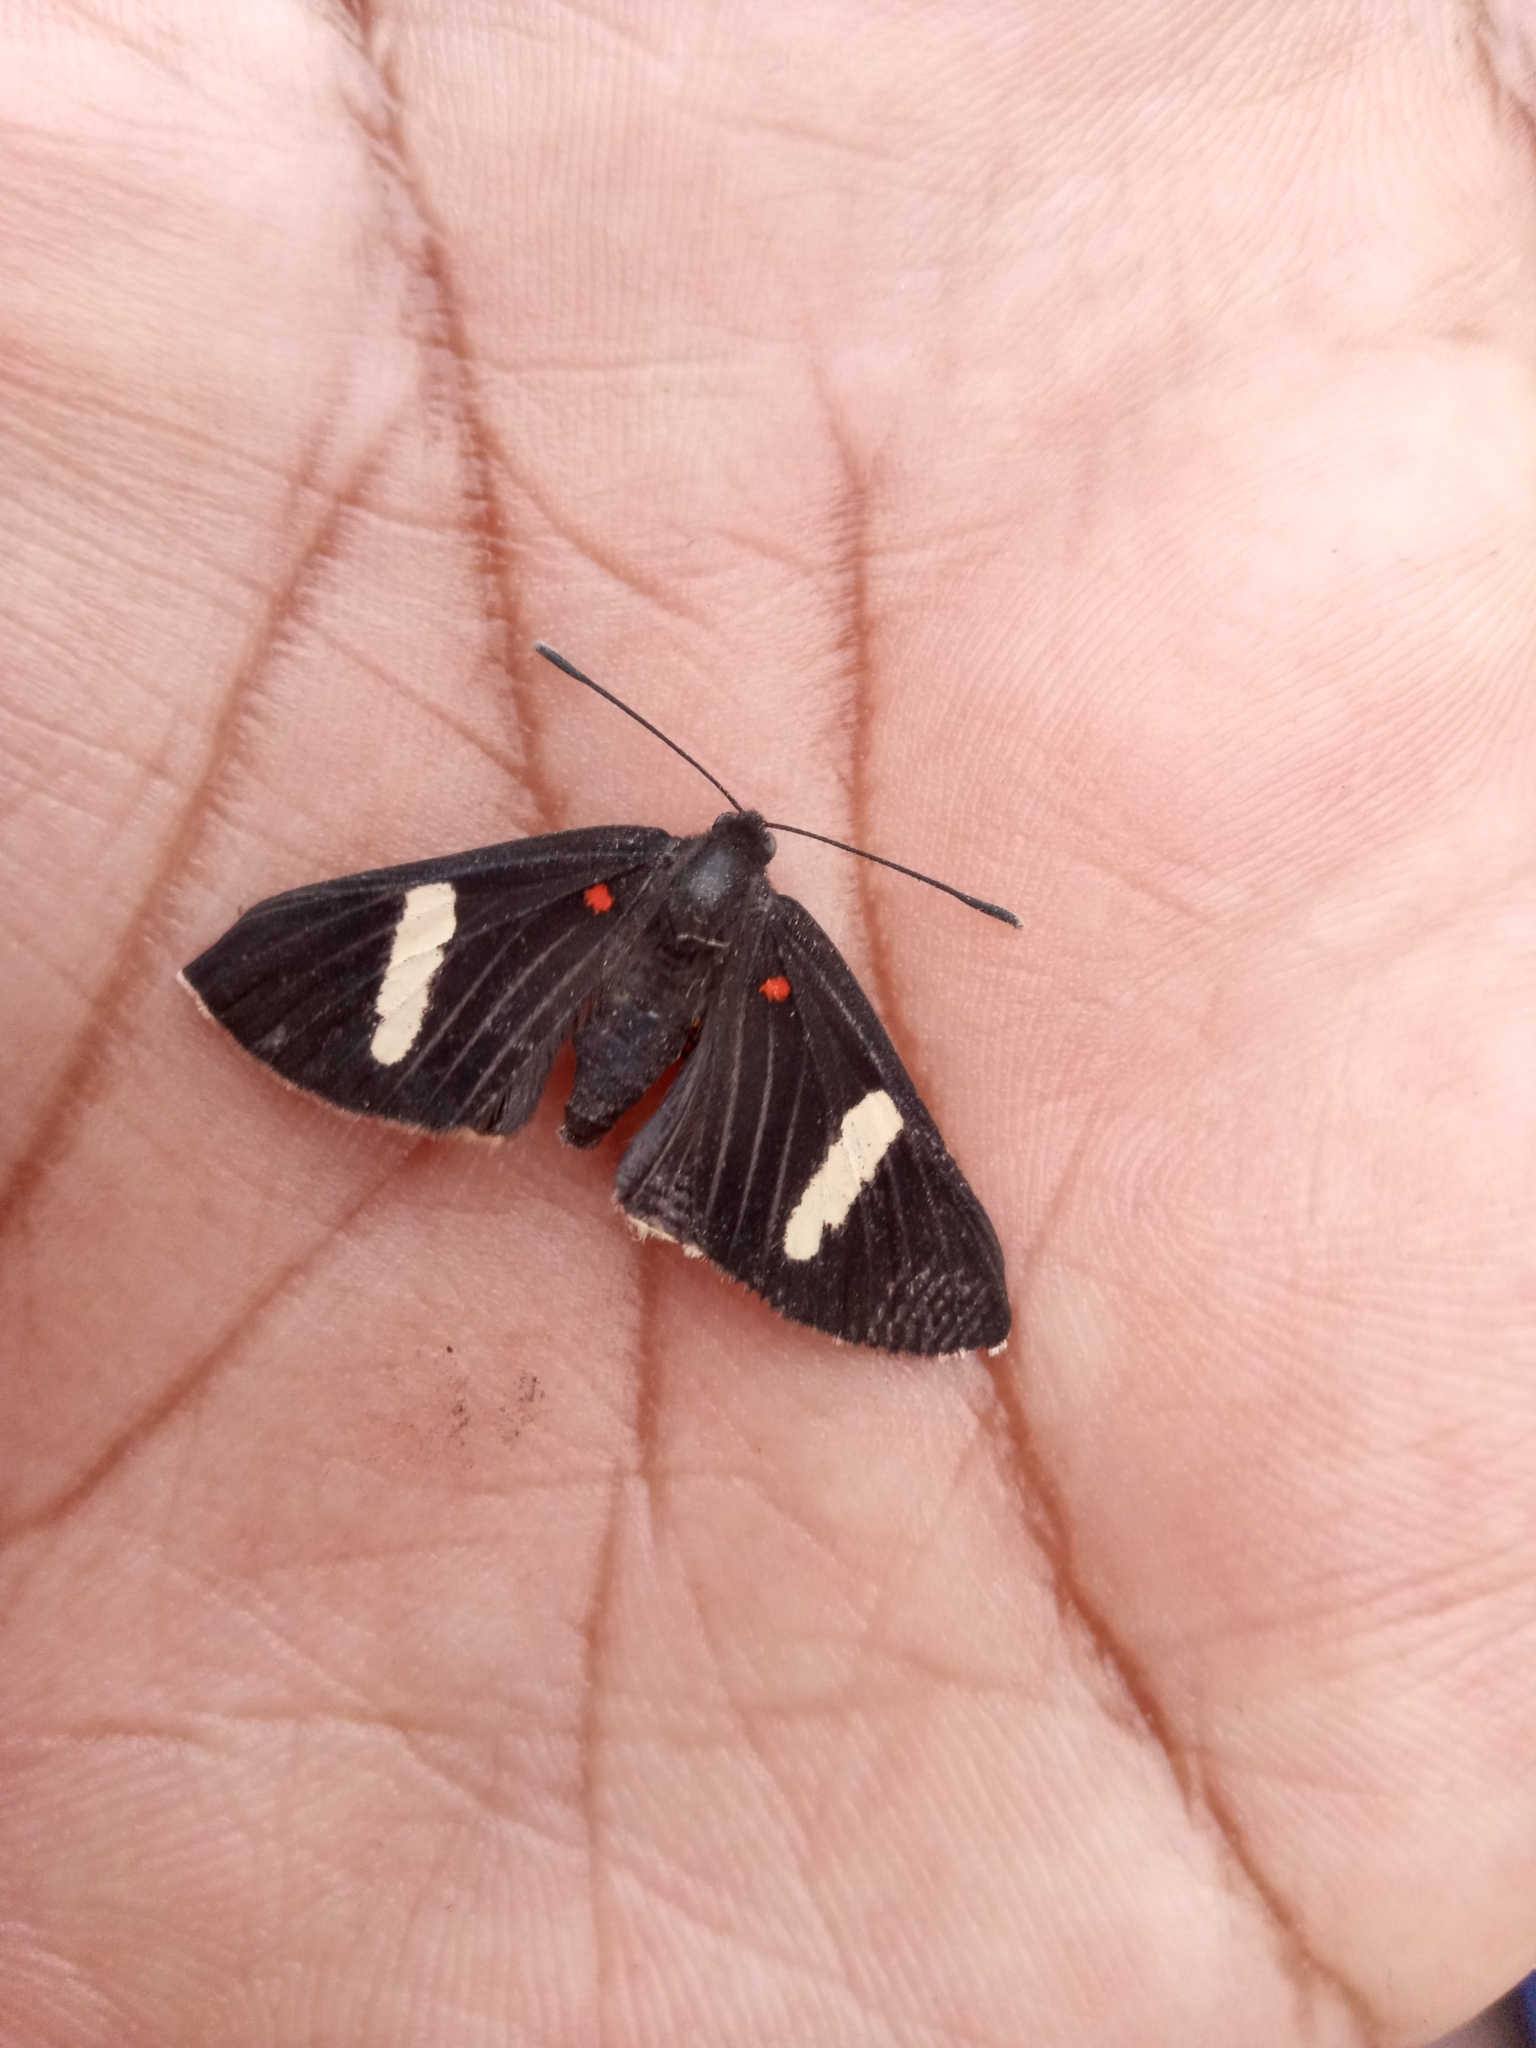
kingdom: Animalia
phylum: Arthropoda
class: Insecta
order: Lepidoptera
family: Lycaenidae
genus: Melanis
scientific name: Melanis
